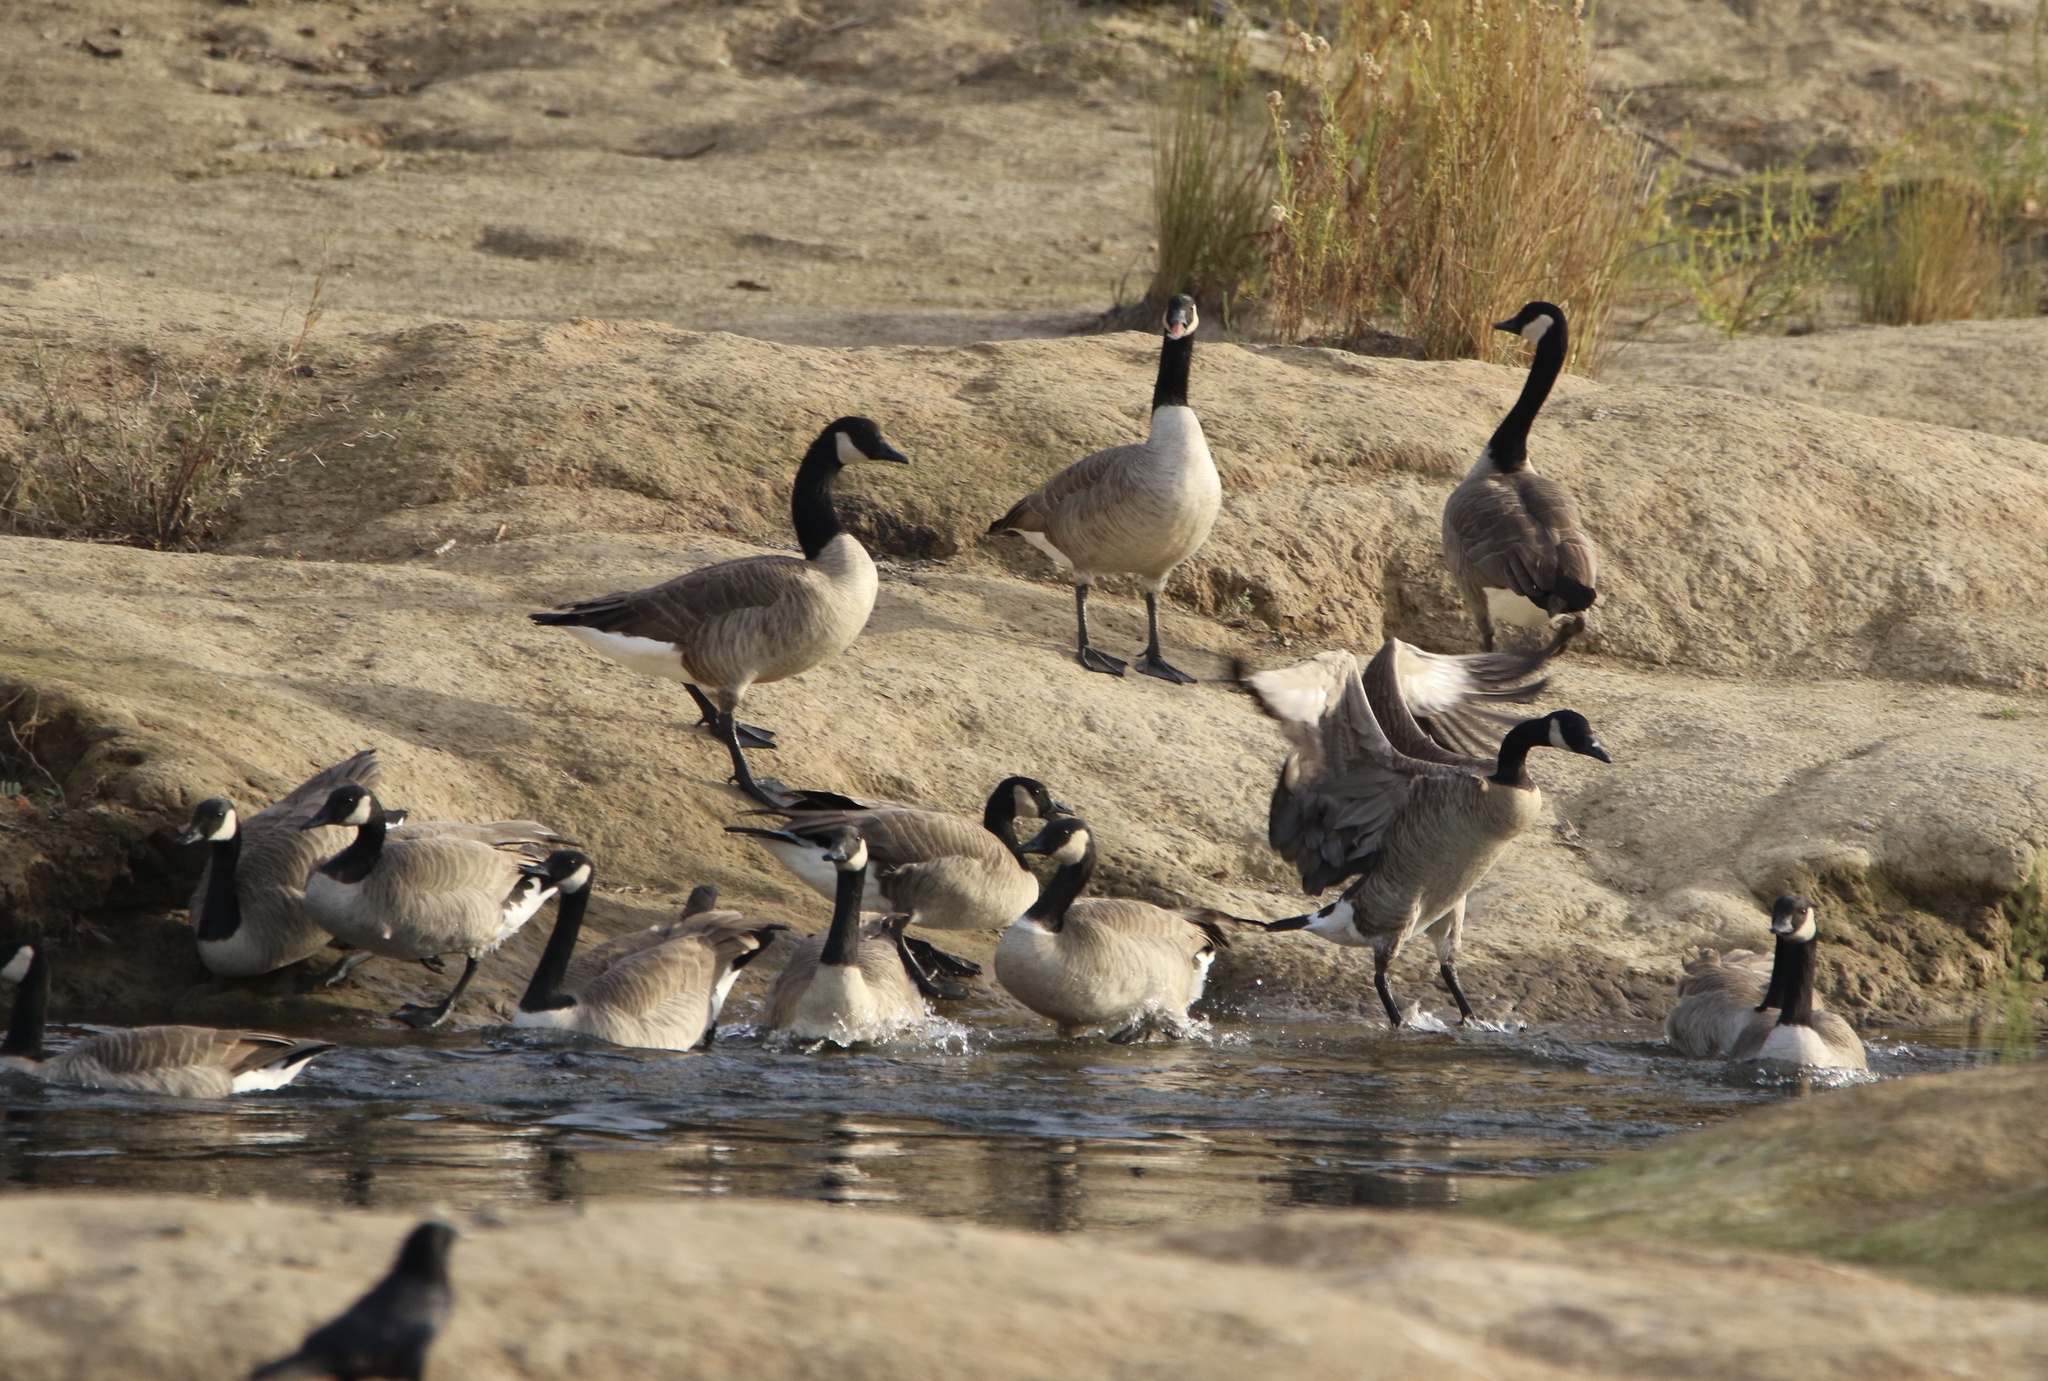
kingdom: Animalia
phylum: Chordata
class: Aves
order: Anseriformes
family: Anatidae
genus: Branta
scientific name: Branta canadensis
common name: Canada goose
